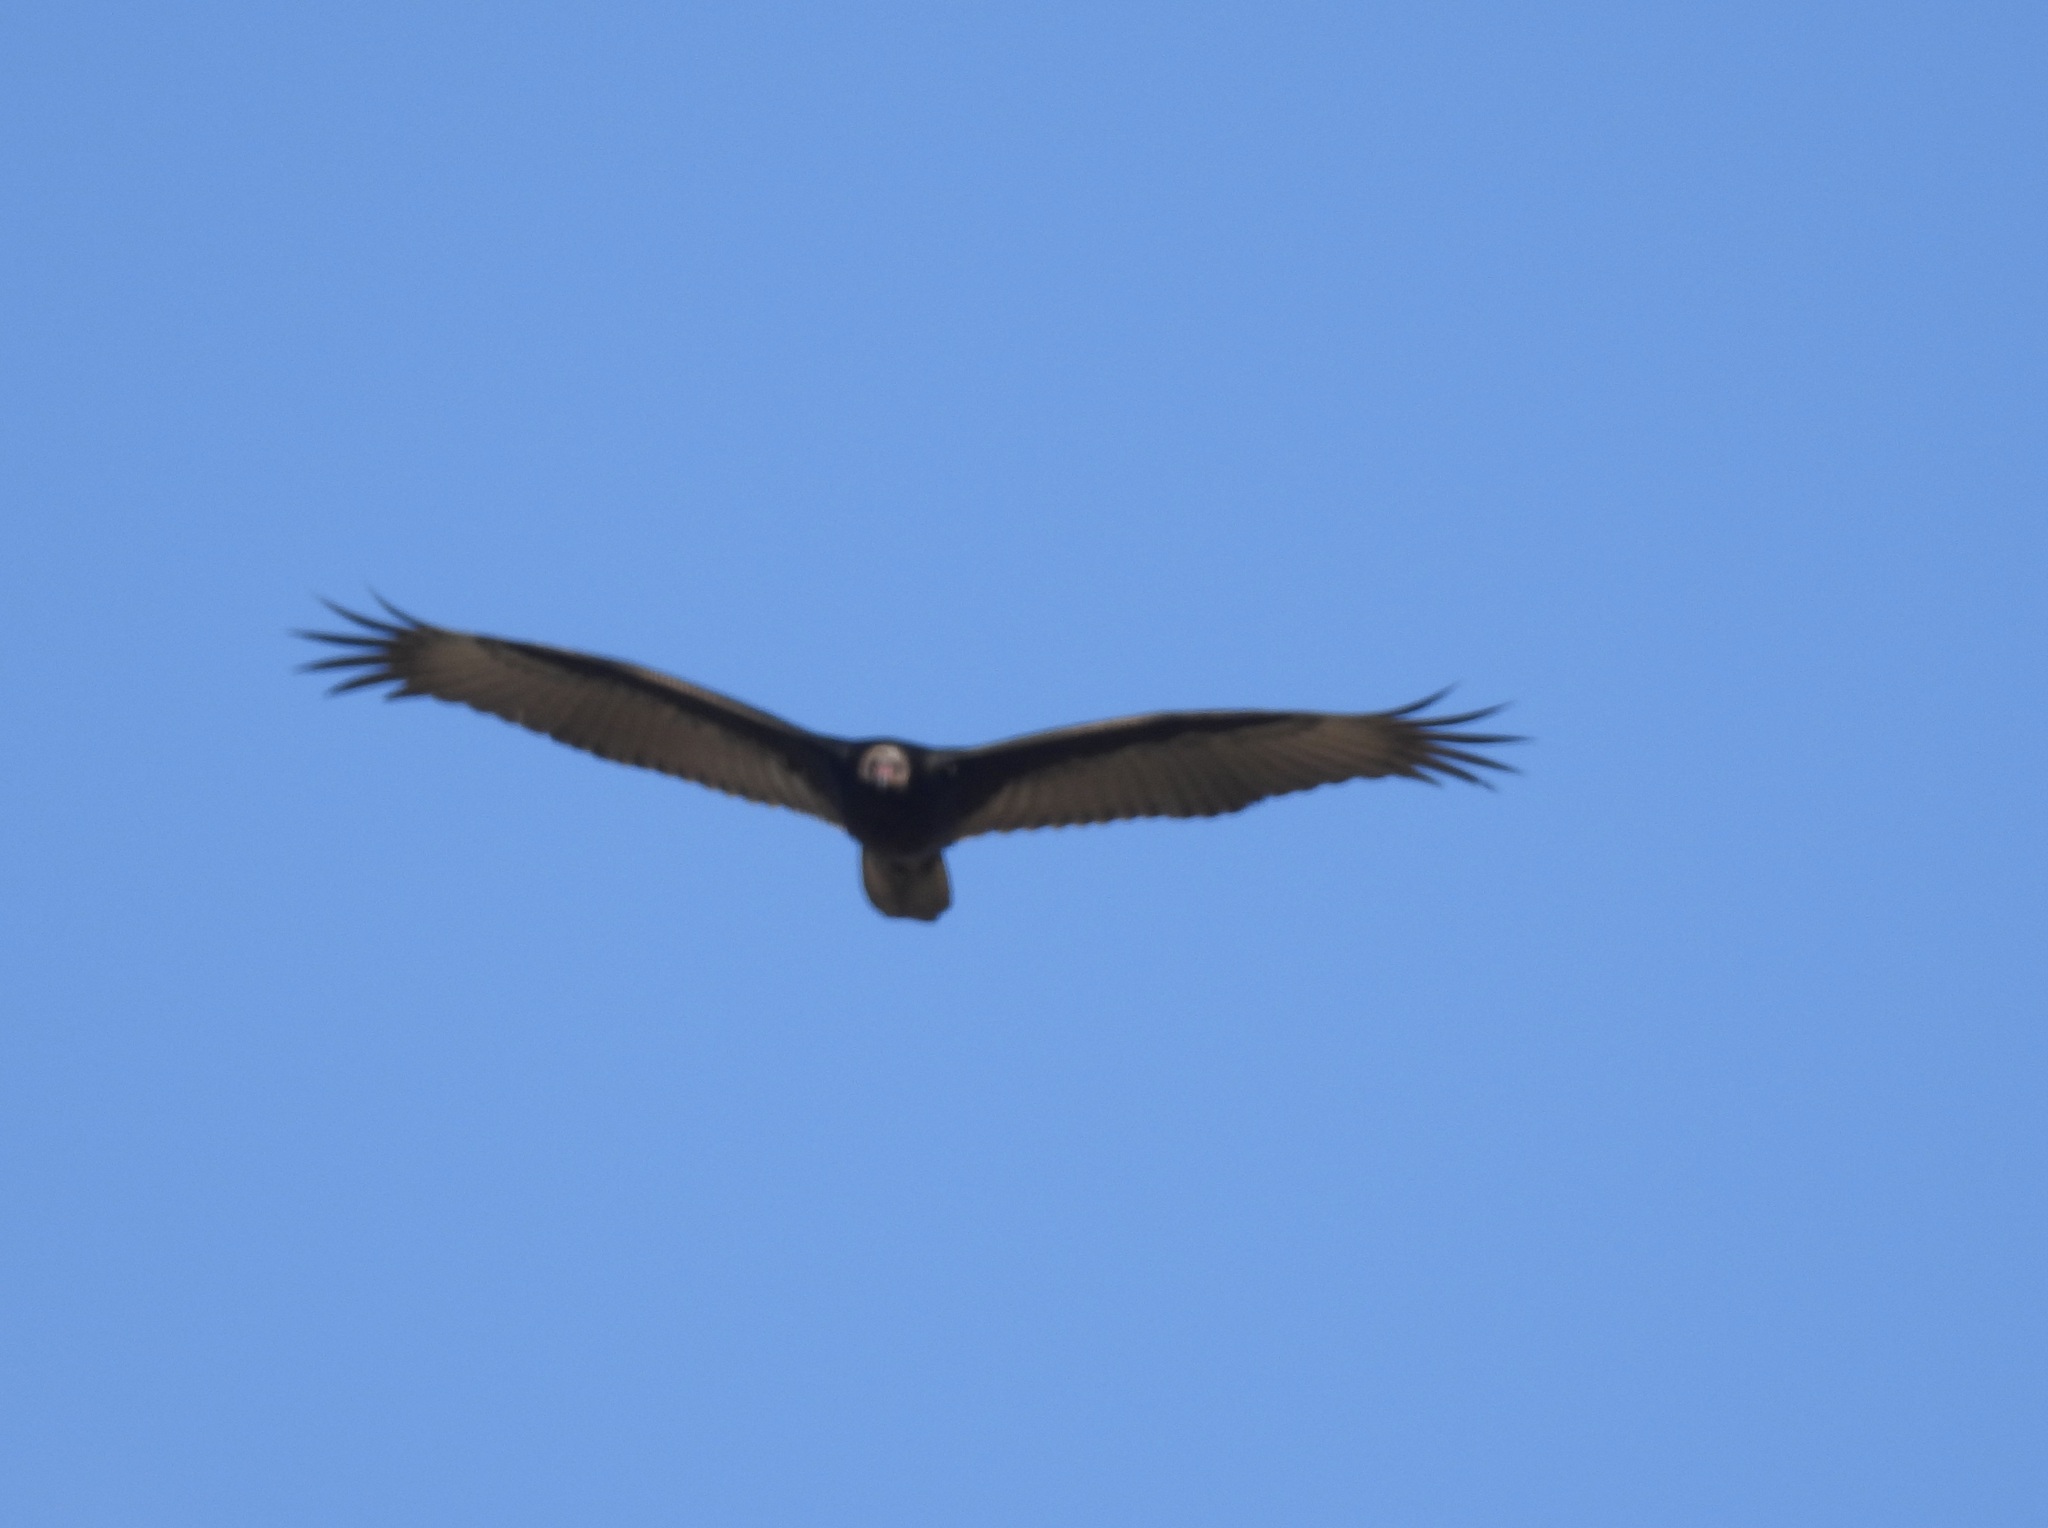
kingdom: Animalia
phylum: Chordata
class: Aves
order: Accipitriformes
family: Cathartidae
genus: Cathartes
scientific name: Cathartes aura
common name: Turkey vulture
